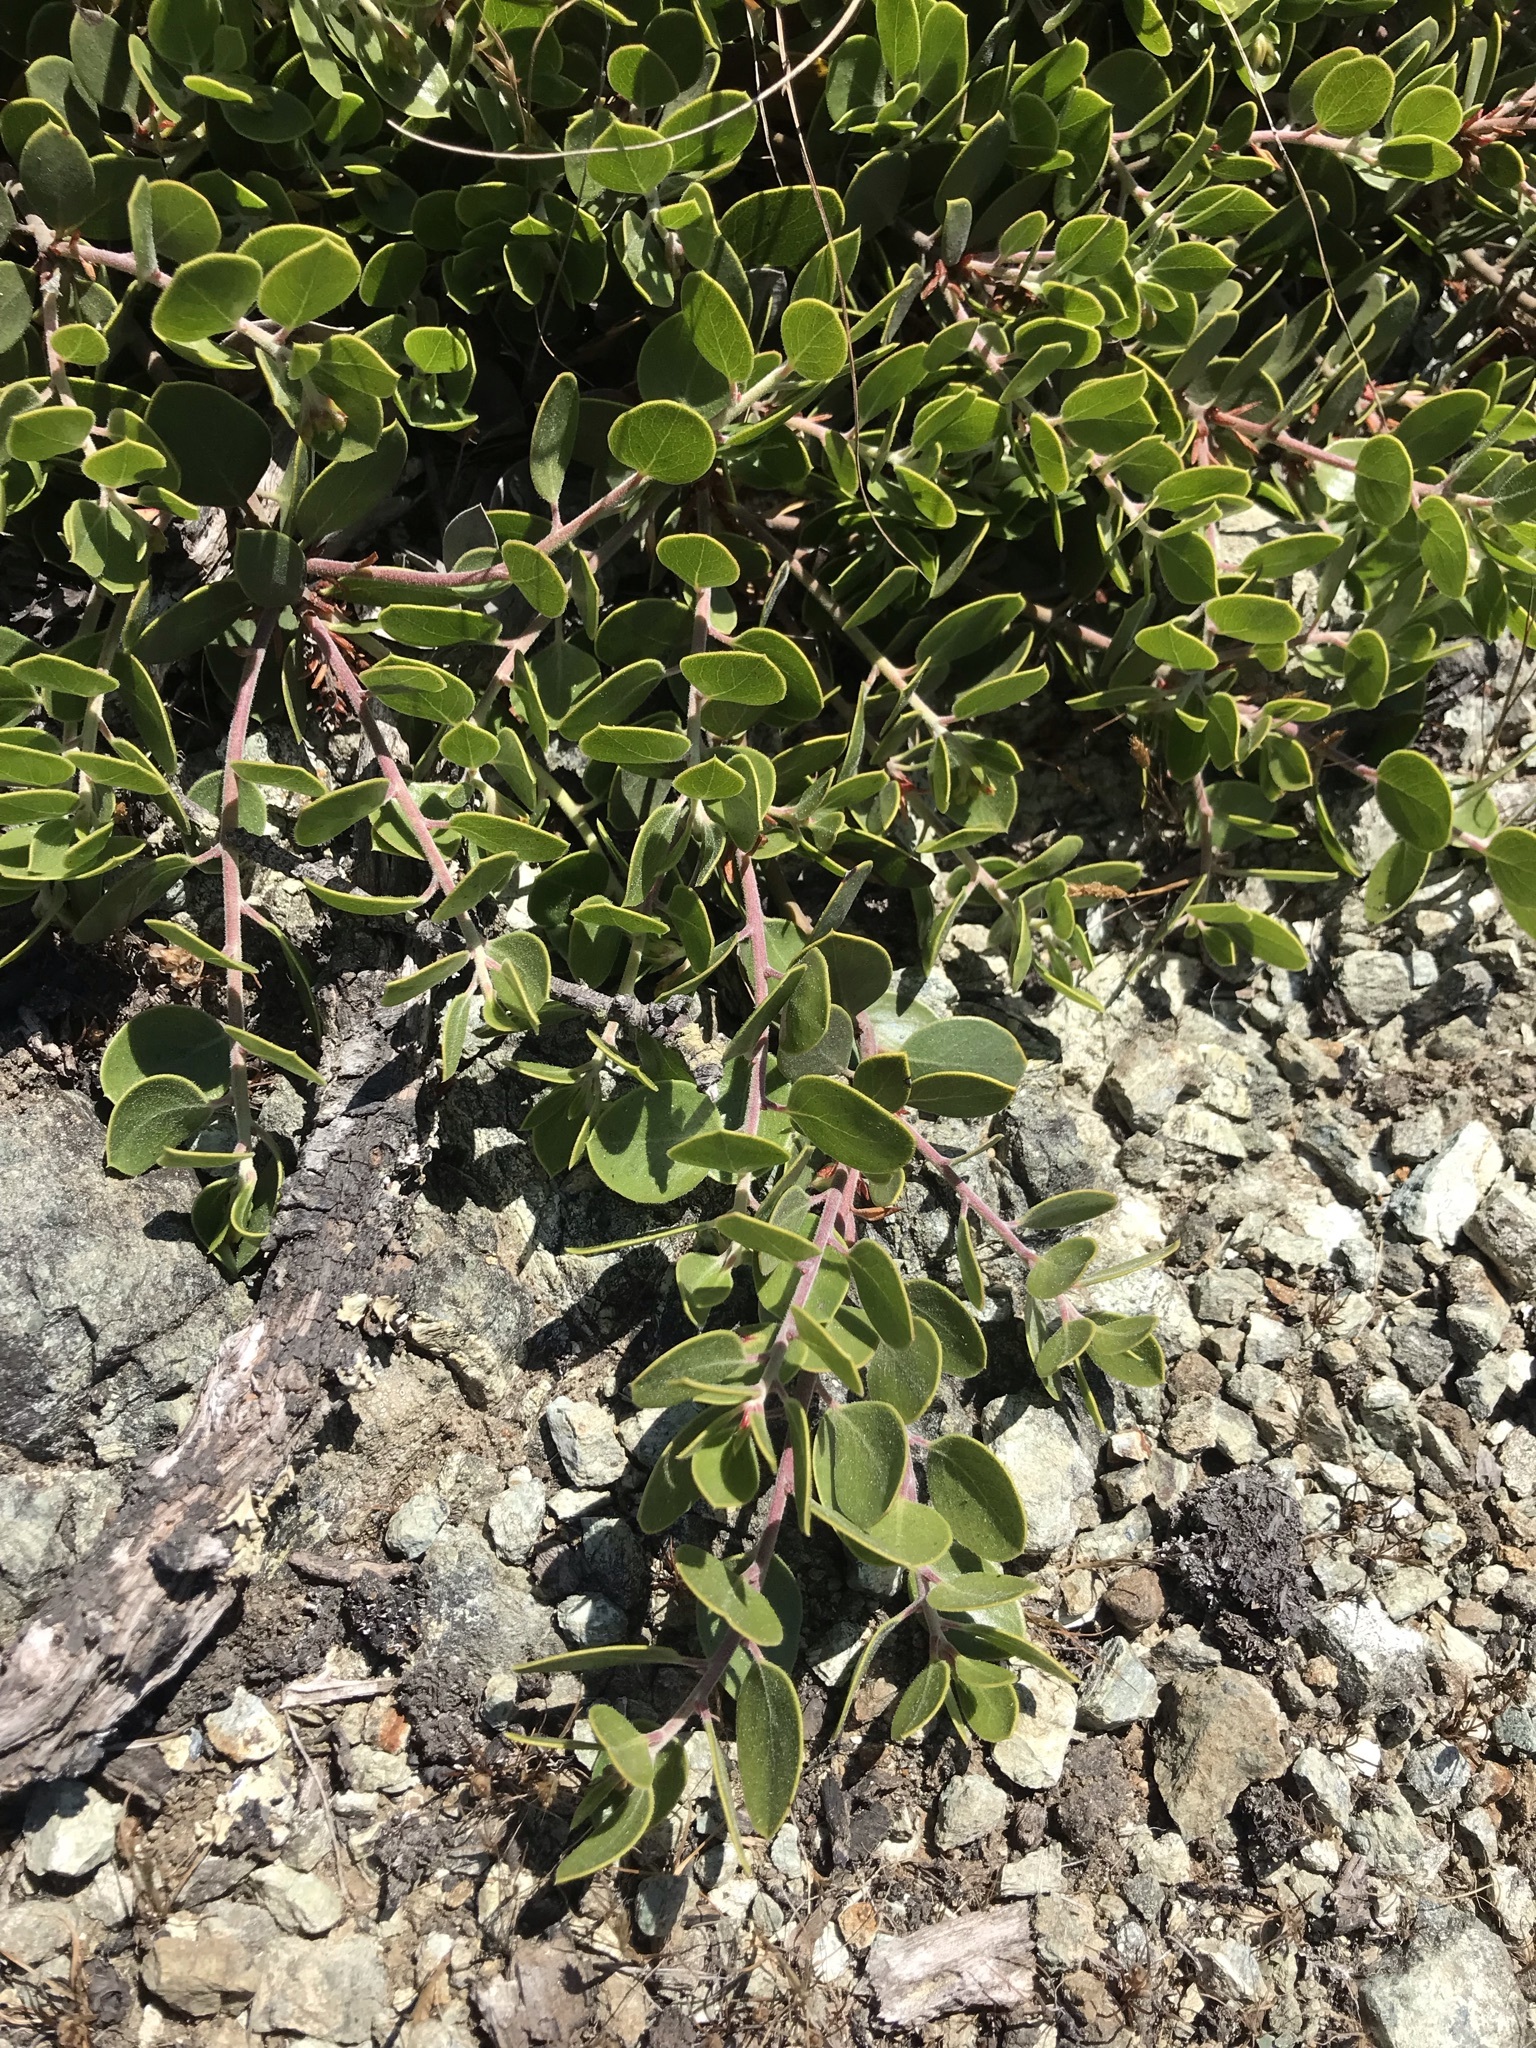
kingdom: Plantae
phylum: Tracheophyta
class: Magnoliopsida
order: Ericales
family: Ericaceae
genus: Arctostaphylos
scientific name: Arctostaphylos mewukka
